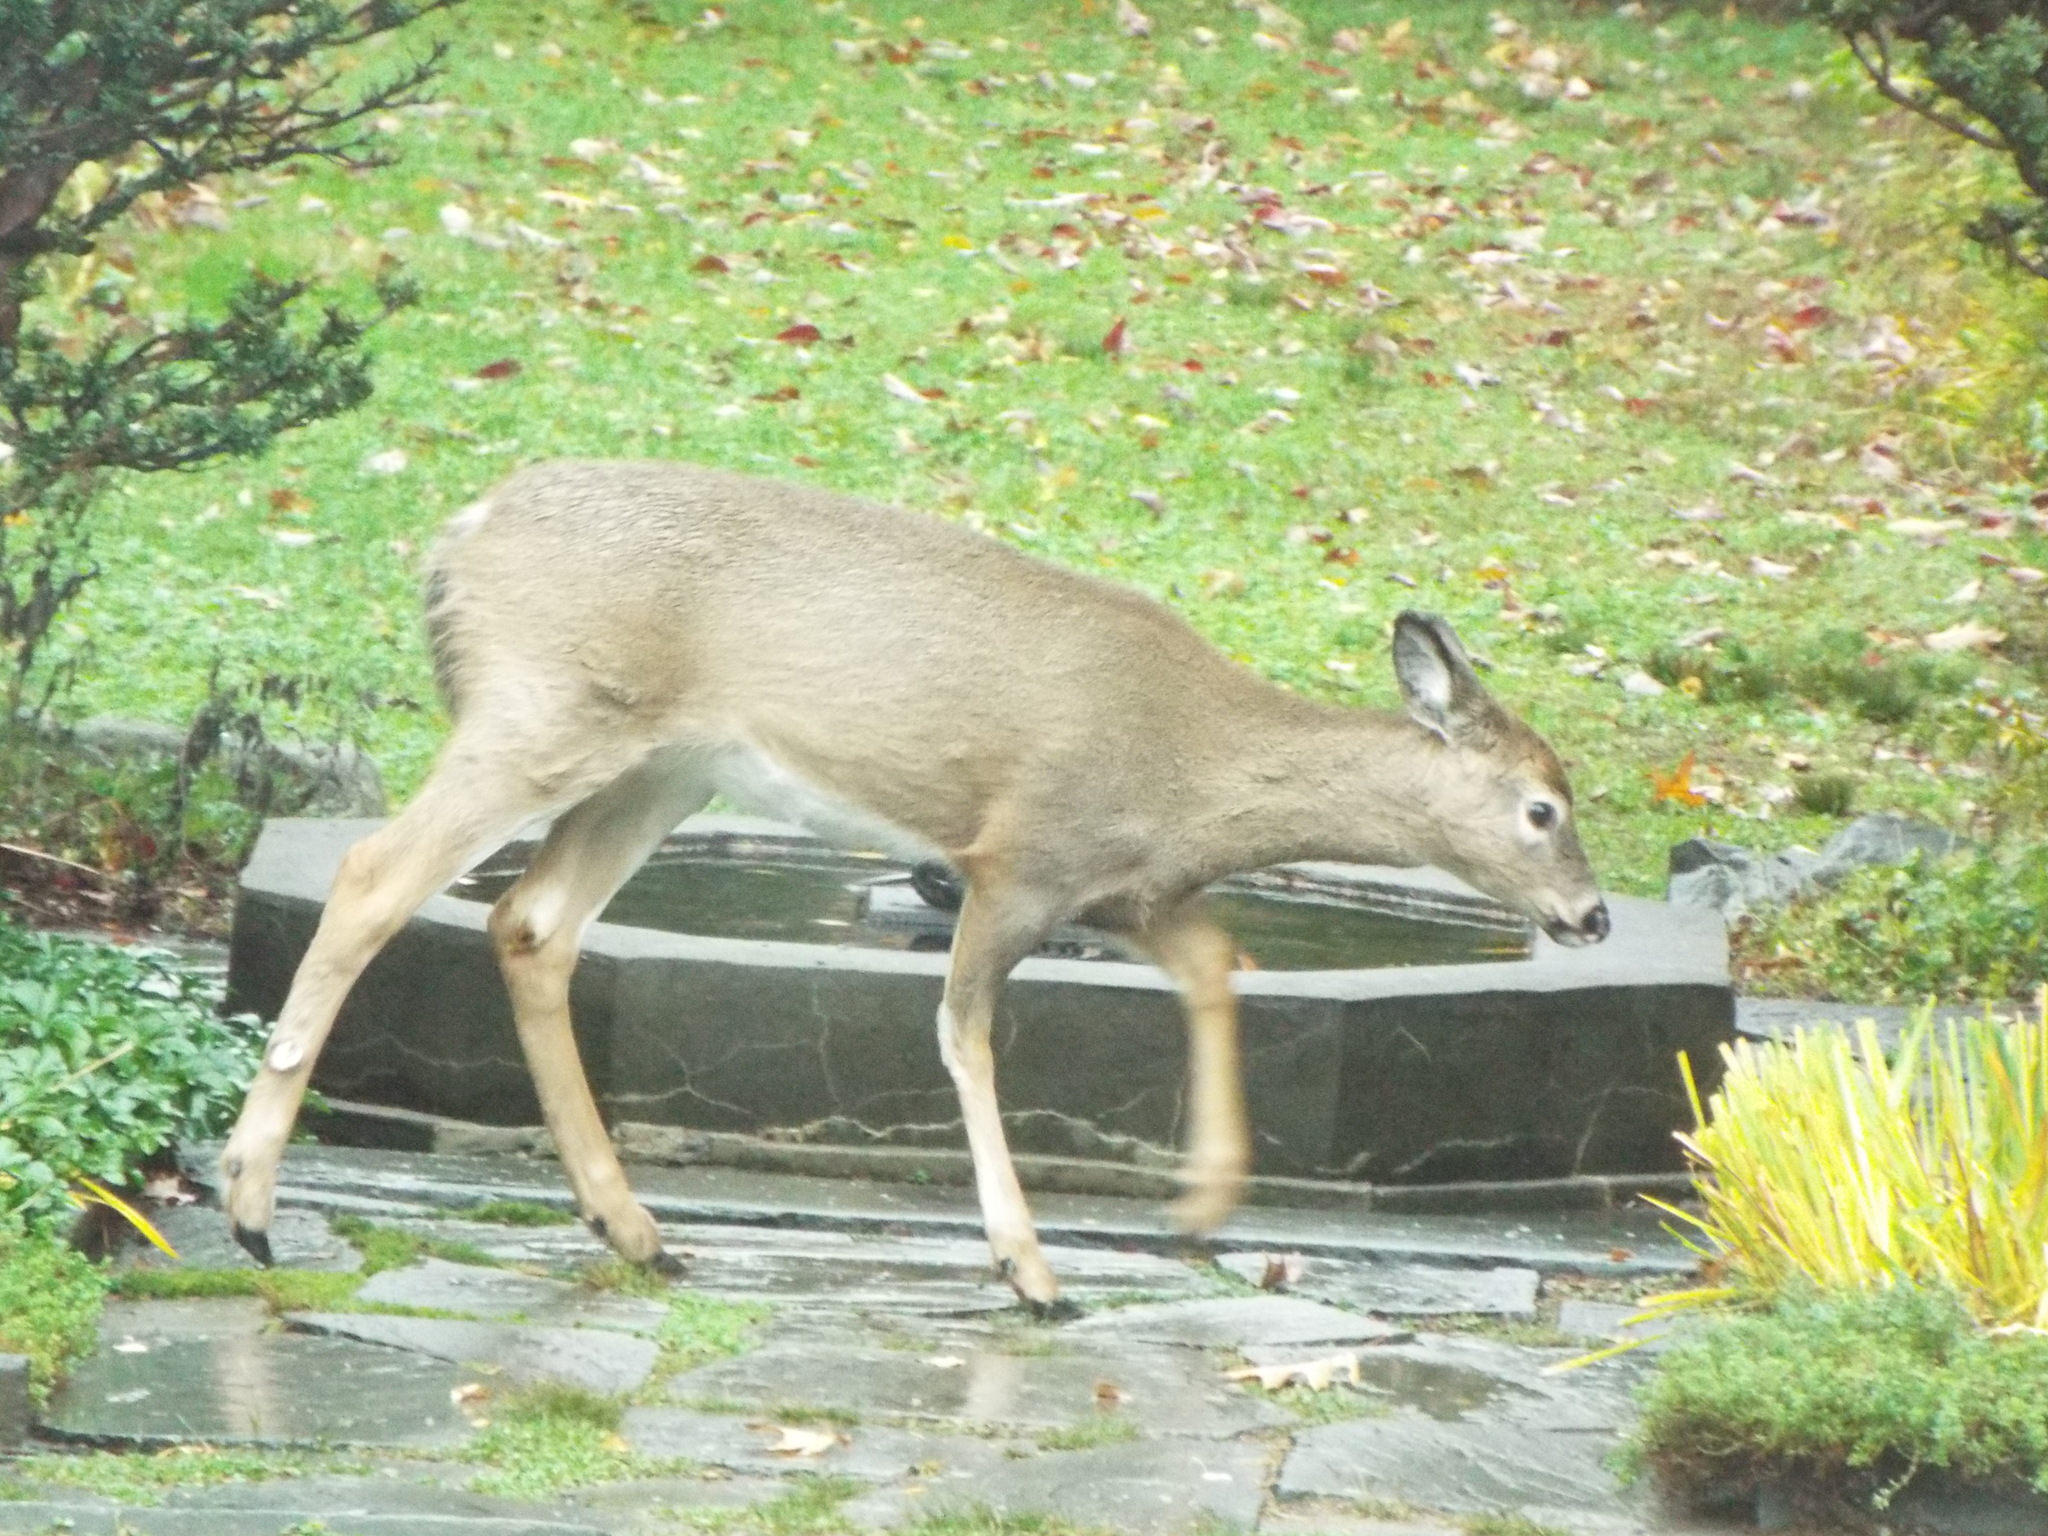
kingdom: Animalia
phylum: Chordata
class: Mammalia
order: Artiodactyla
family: Cervidae
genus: Odocoileus
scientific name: Odocoileus virginianus
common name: White-tailed deer
